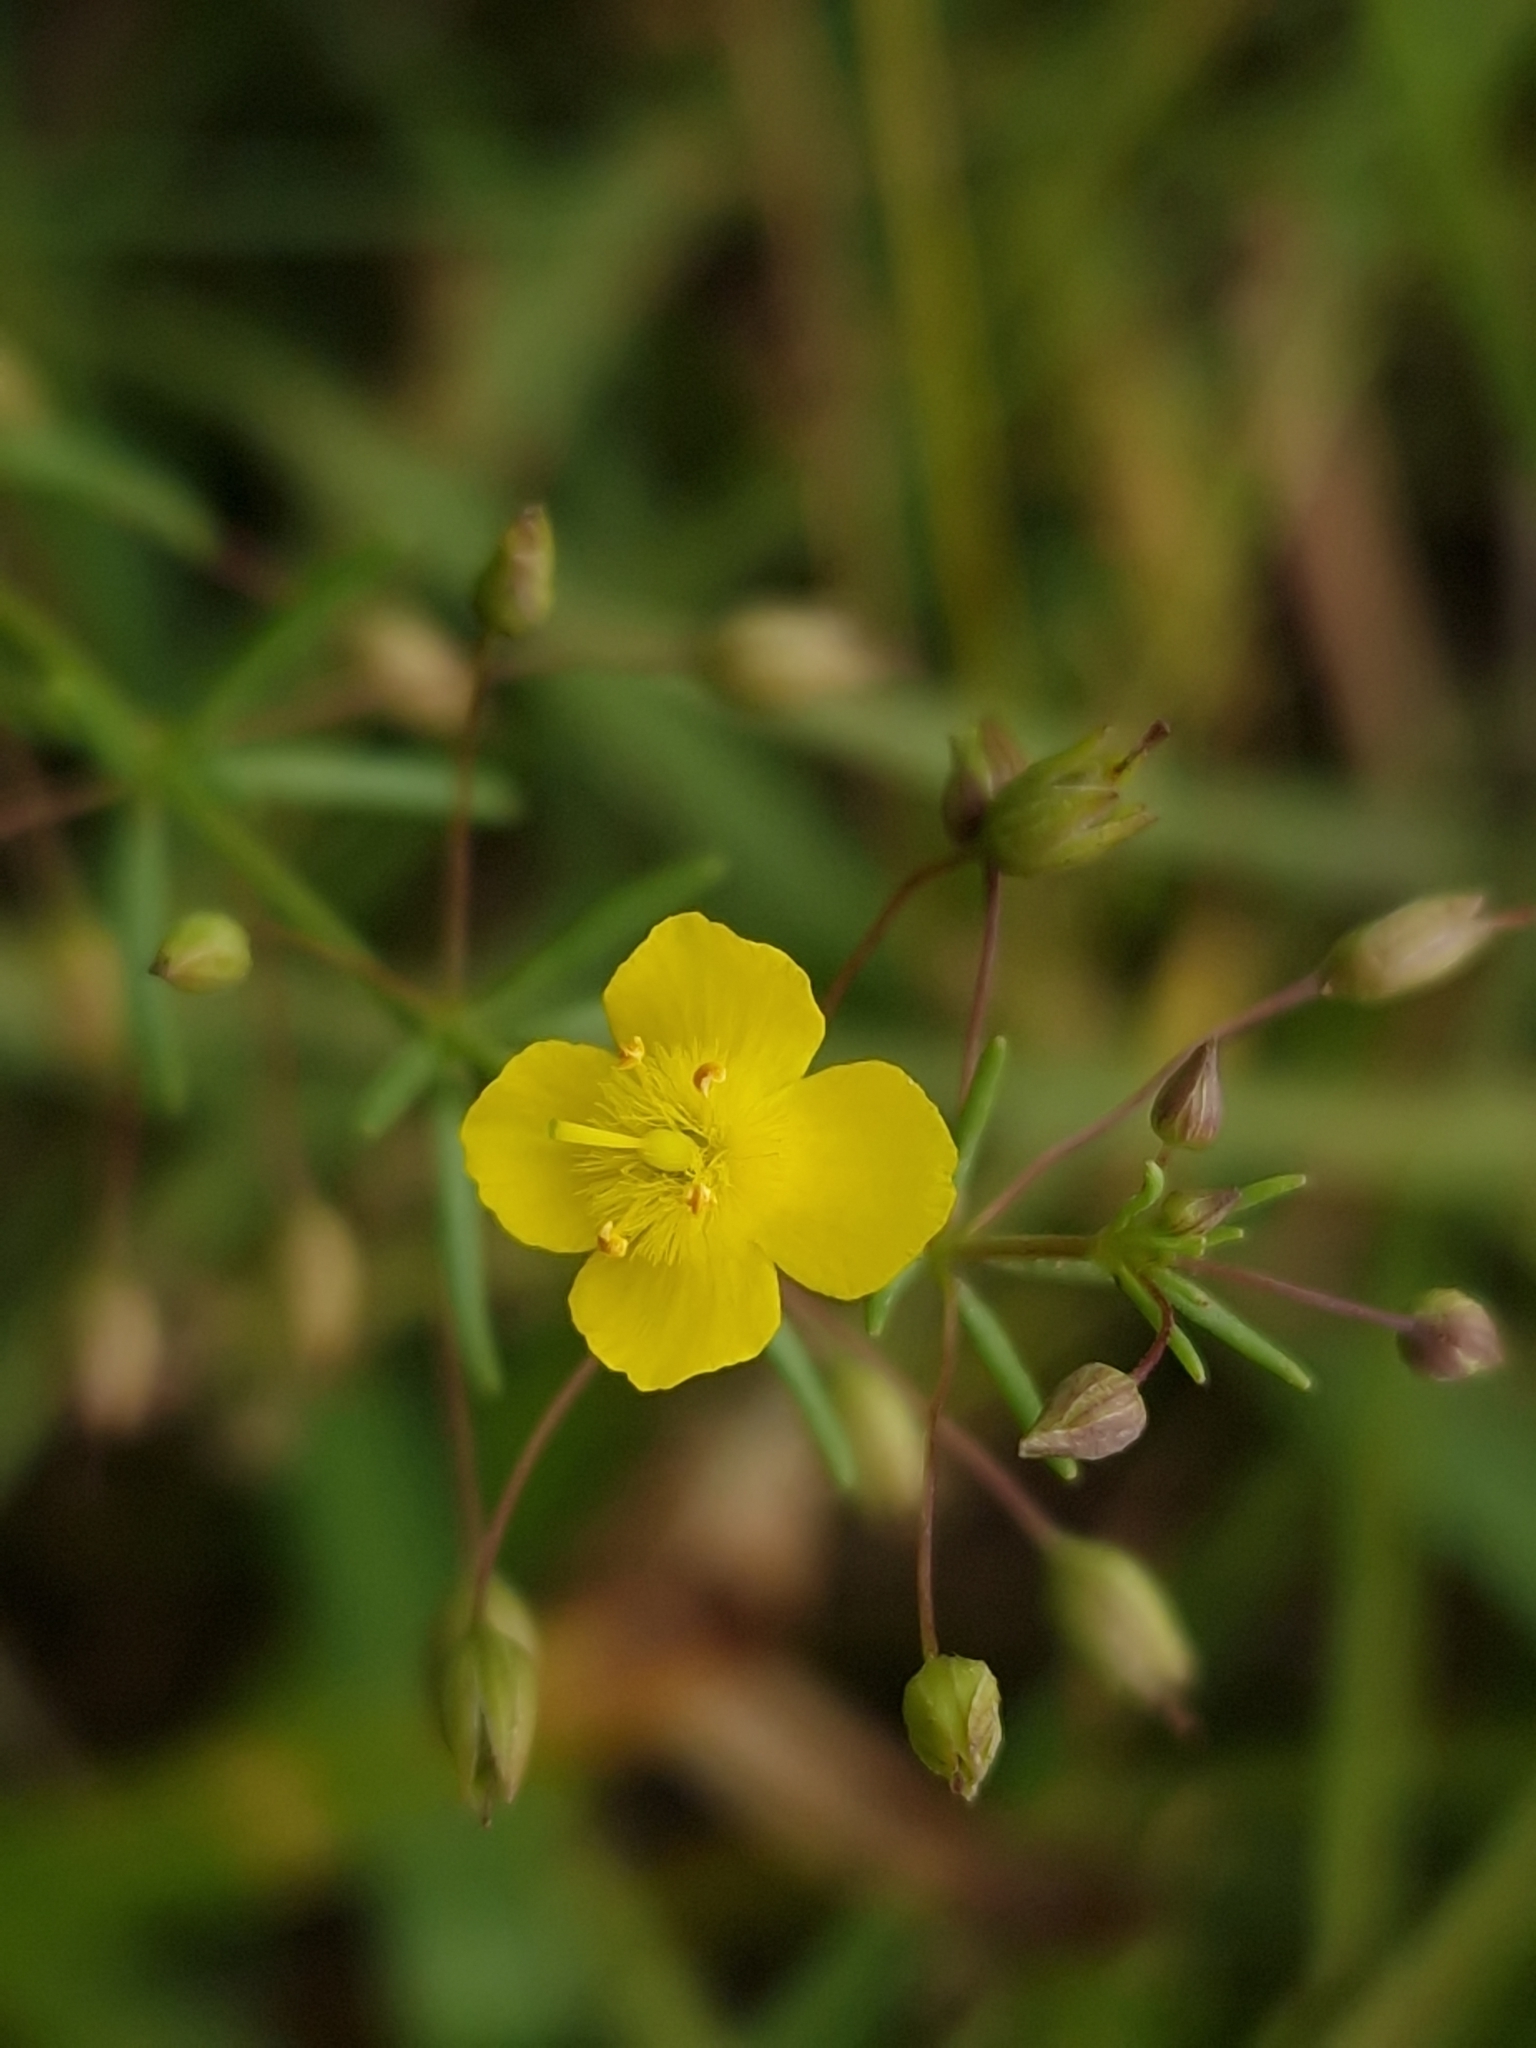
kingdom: Plantae
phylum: Tracheophyta
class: Magnoliopsida
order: Lamiales
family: Plantaginaceae
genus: Scoparia
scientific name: Scoparia montevidensis
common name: Broomwort
